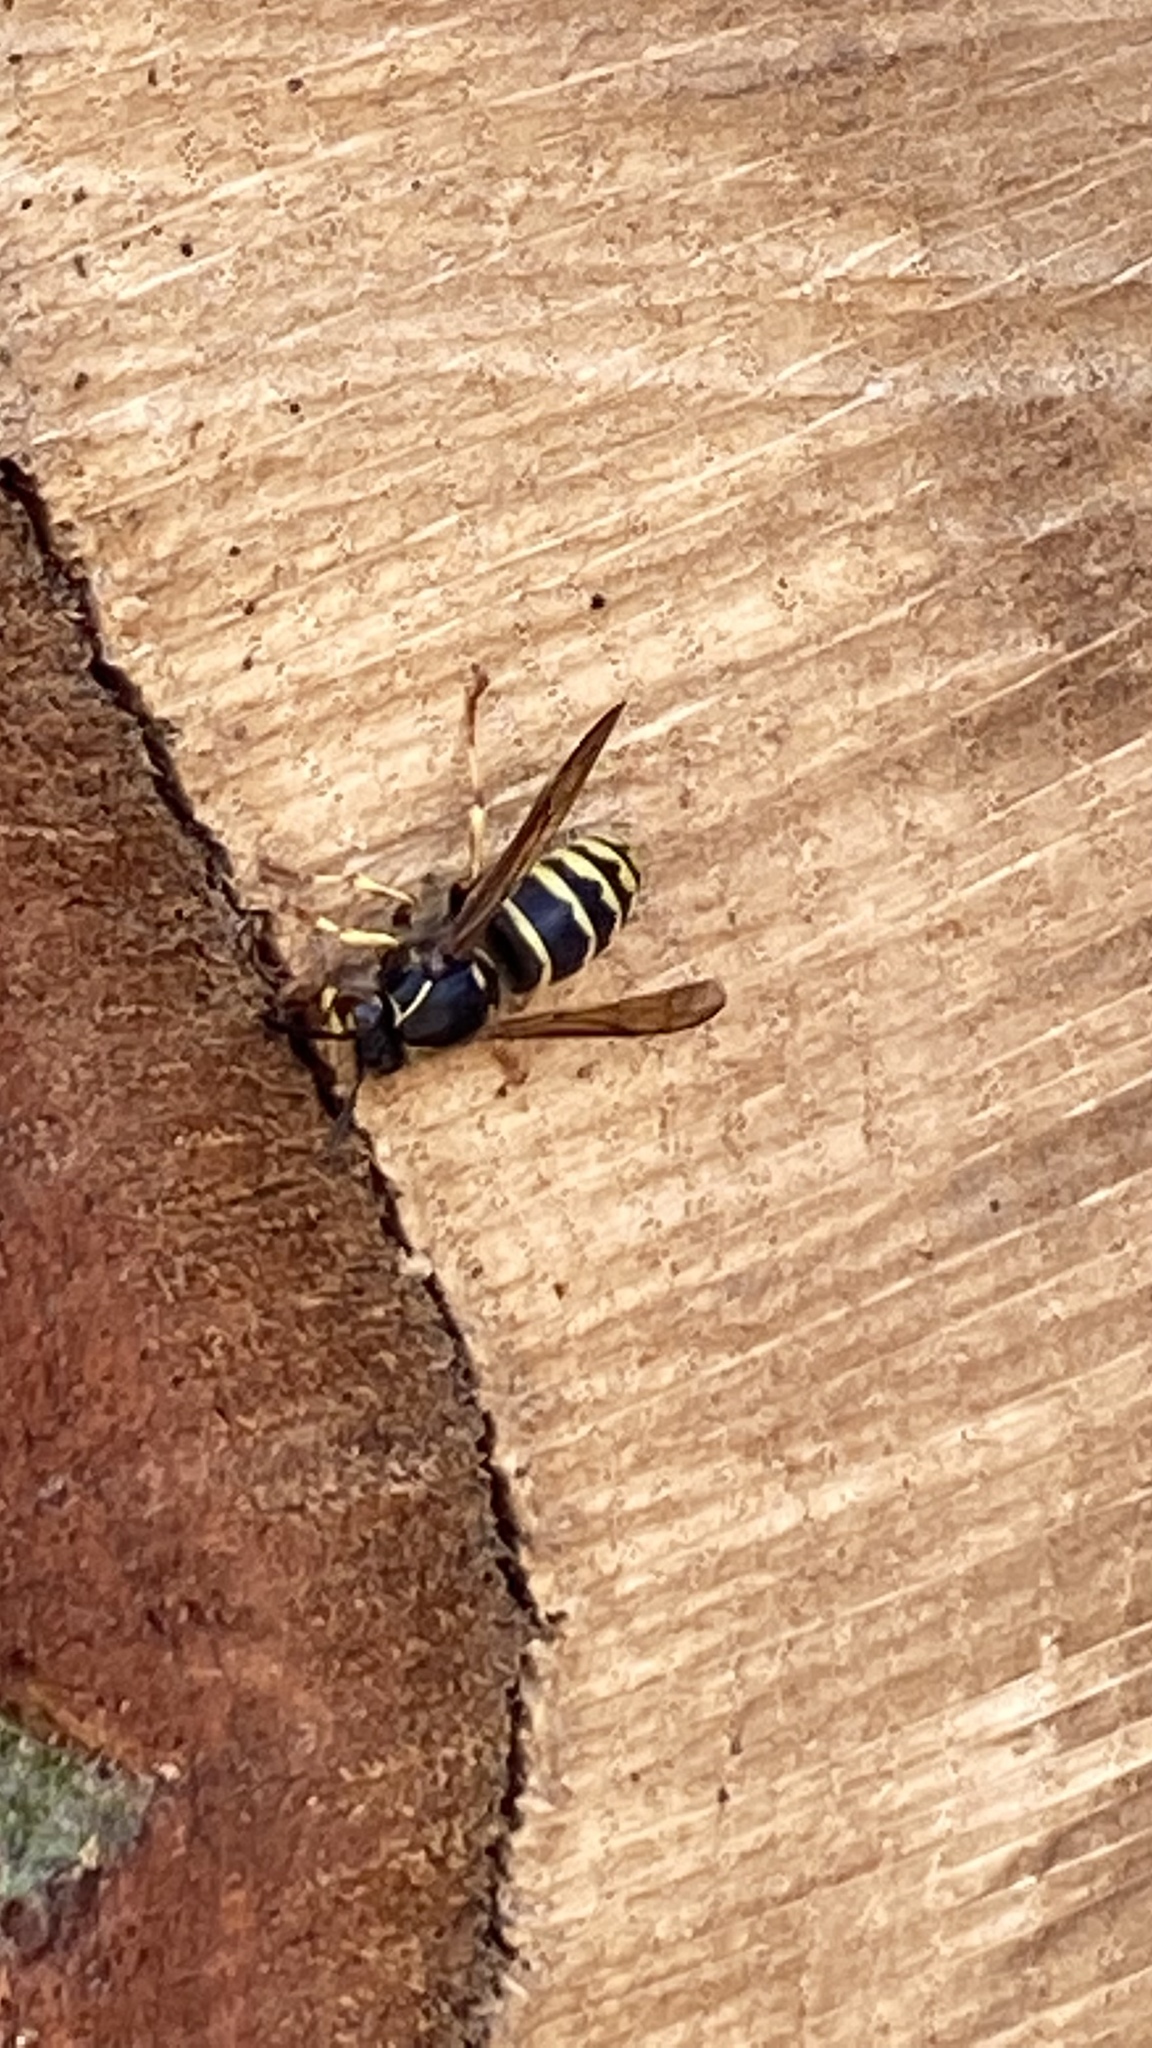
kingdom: Animalia
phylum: Arthropoda
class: Insecta
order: Hymenoptera
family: Vespidae
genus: Dolichovespula
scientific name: Dolichovespula media
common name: Median wasp
